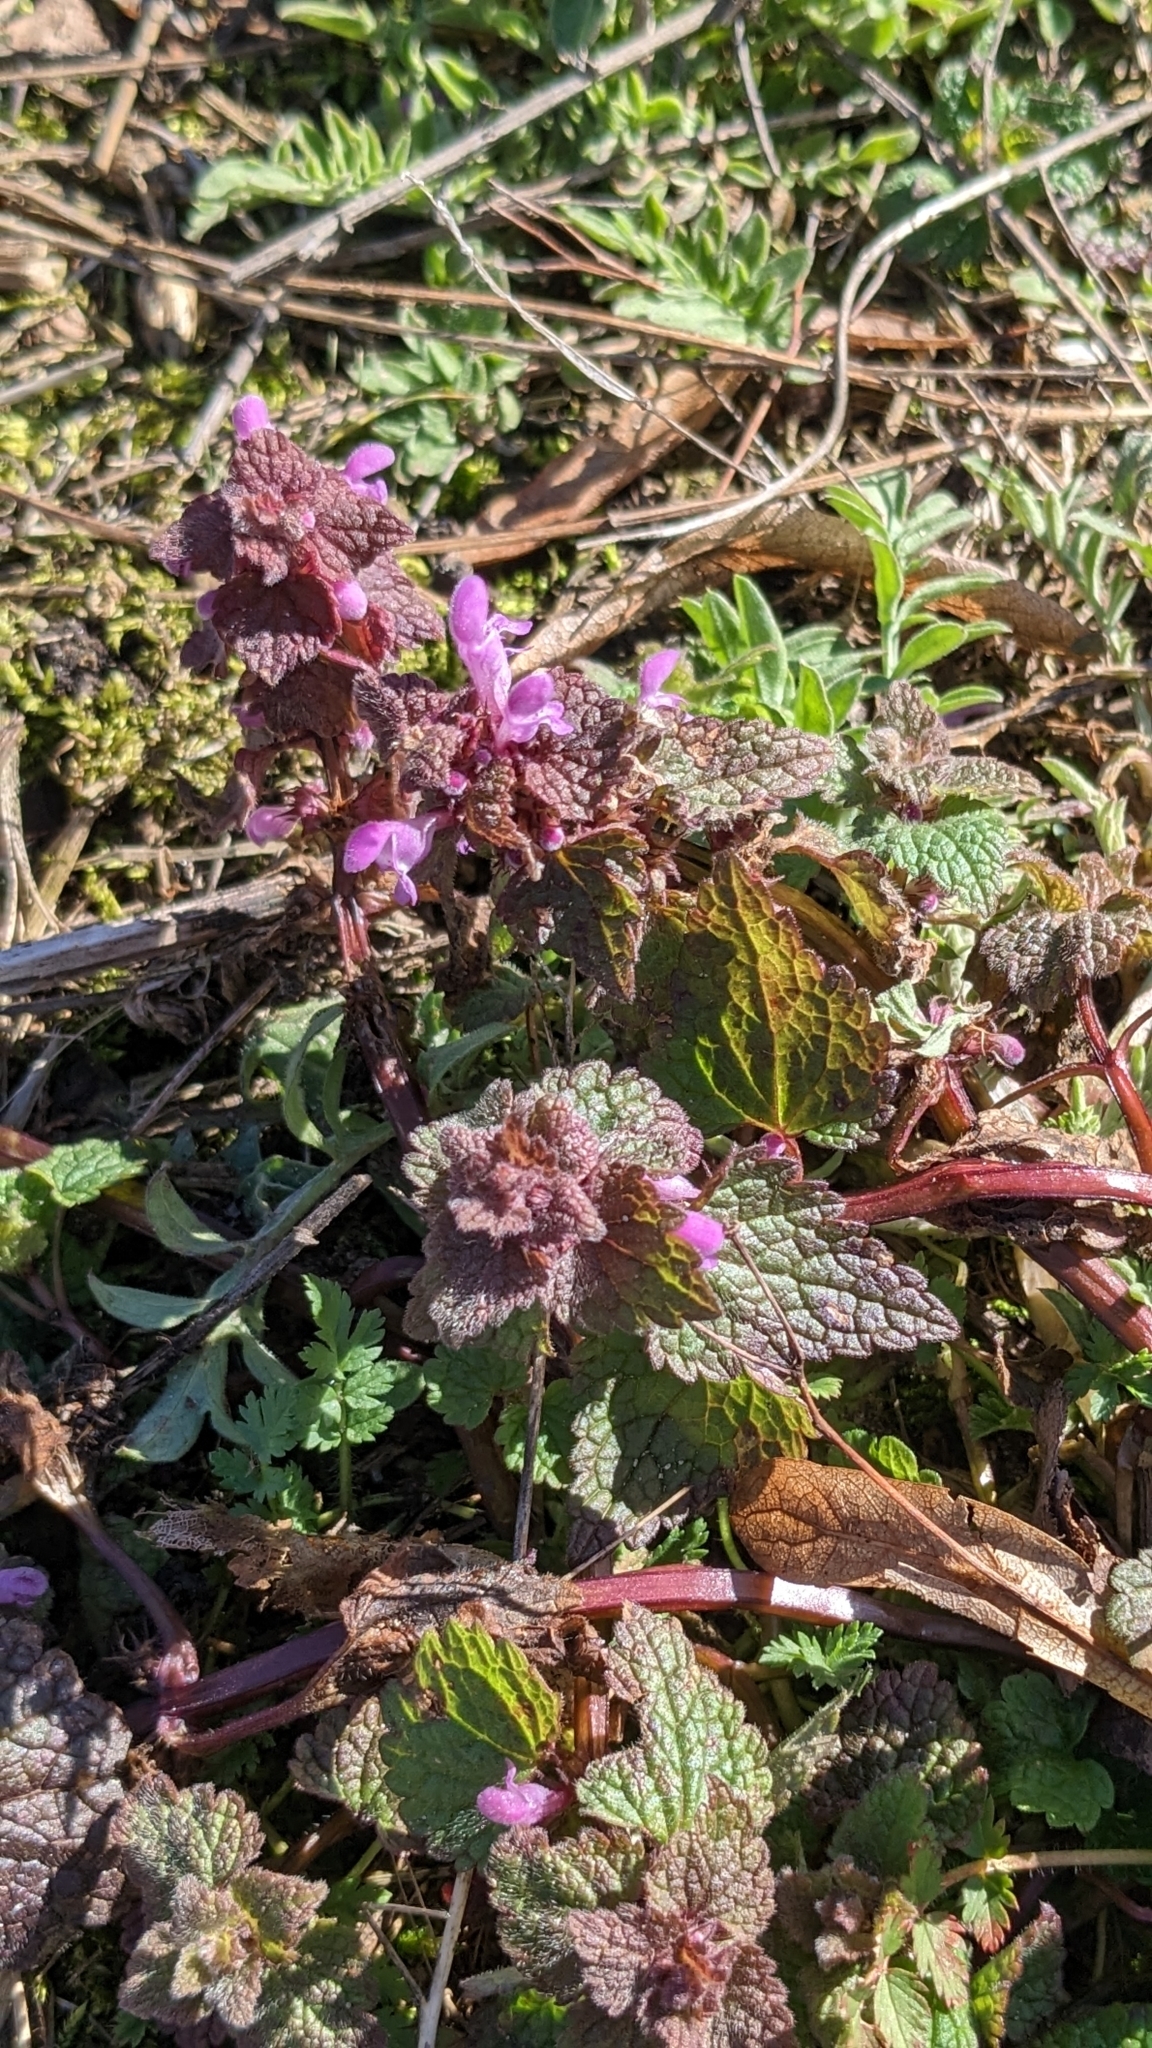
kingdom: Plantae
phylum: Tracheophyta
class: Magnoliopsida
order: Lamiales
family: Lamiaceae
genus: Lamium
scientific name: Lamium purpureum
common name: Red dead-nettle
